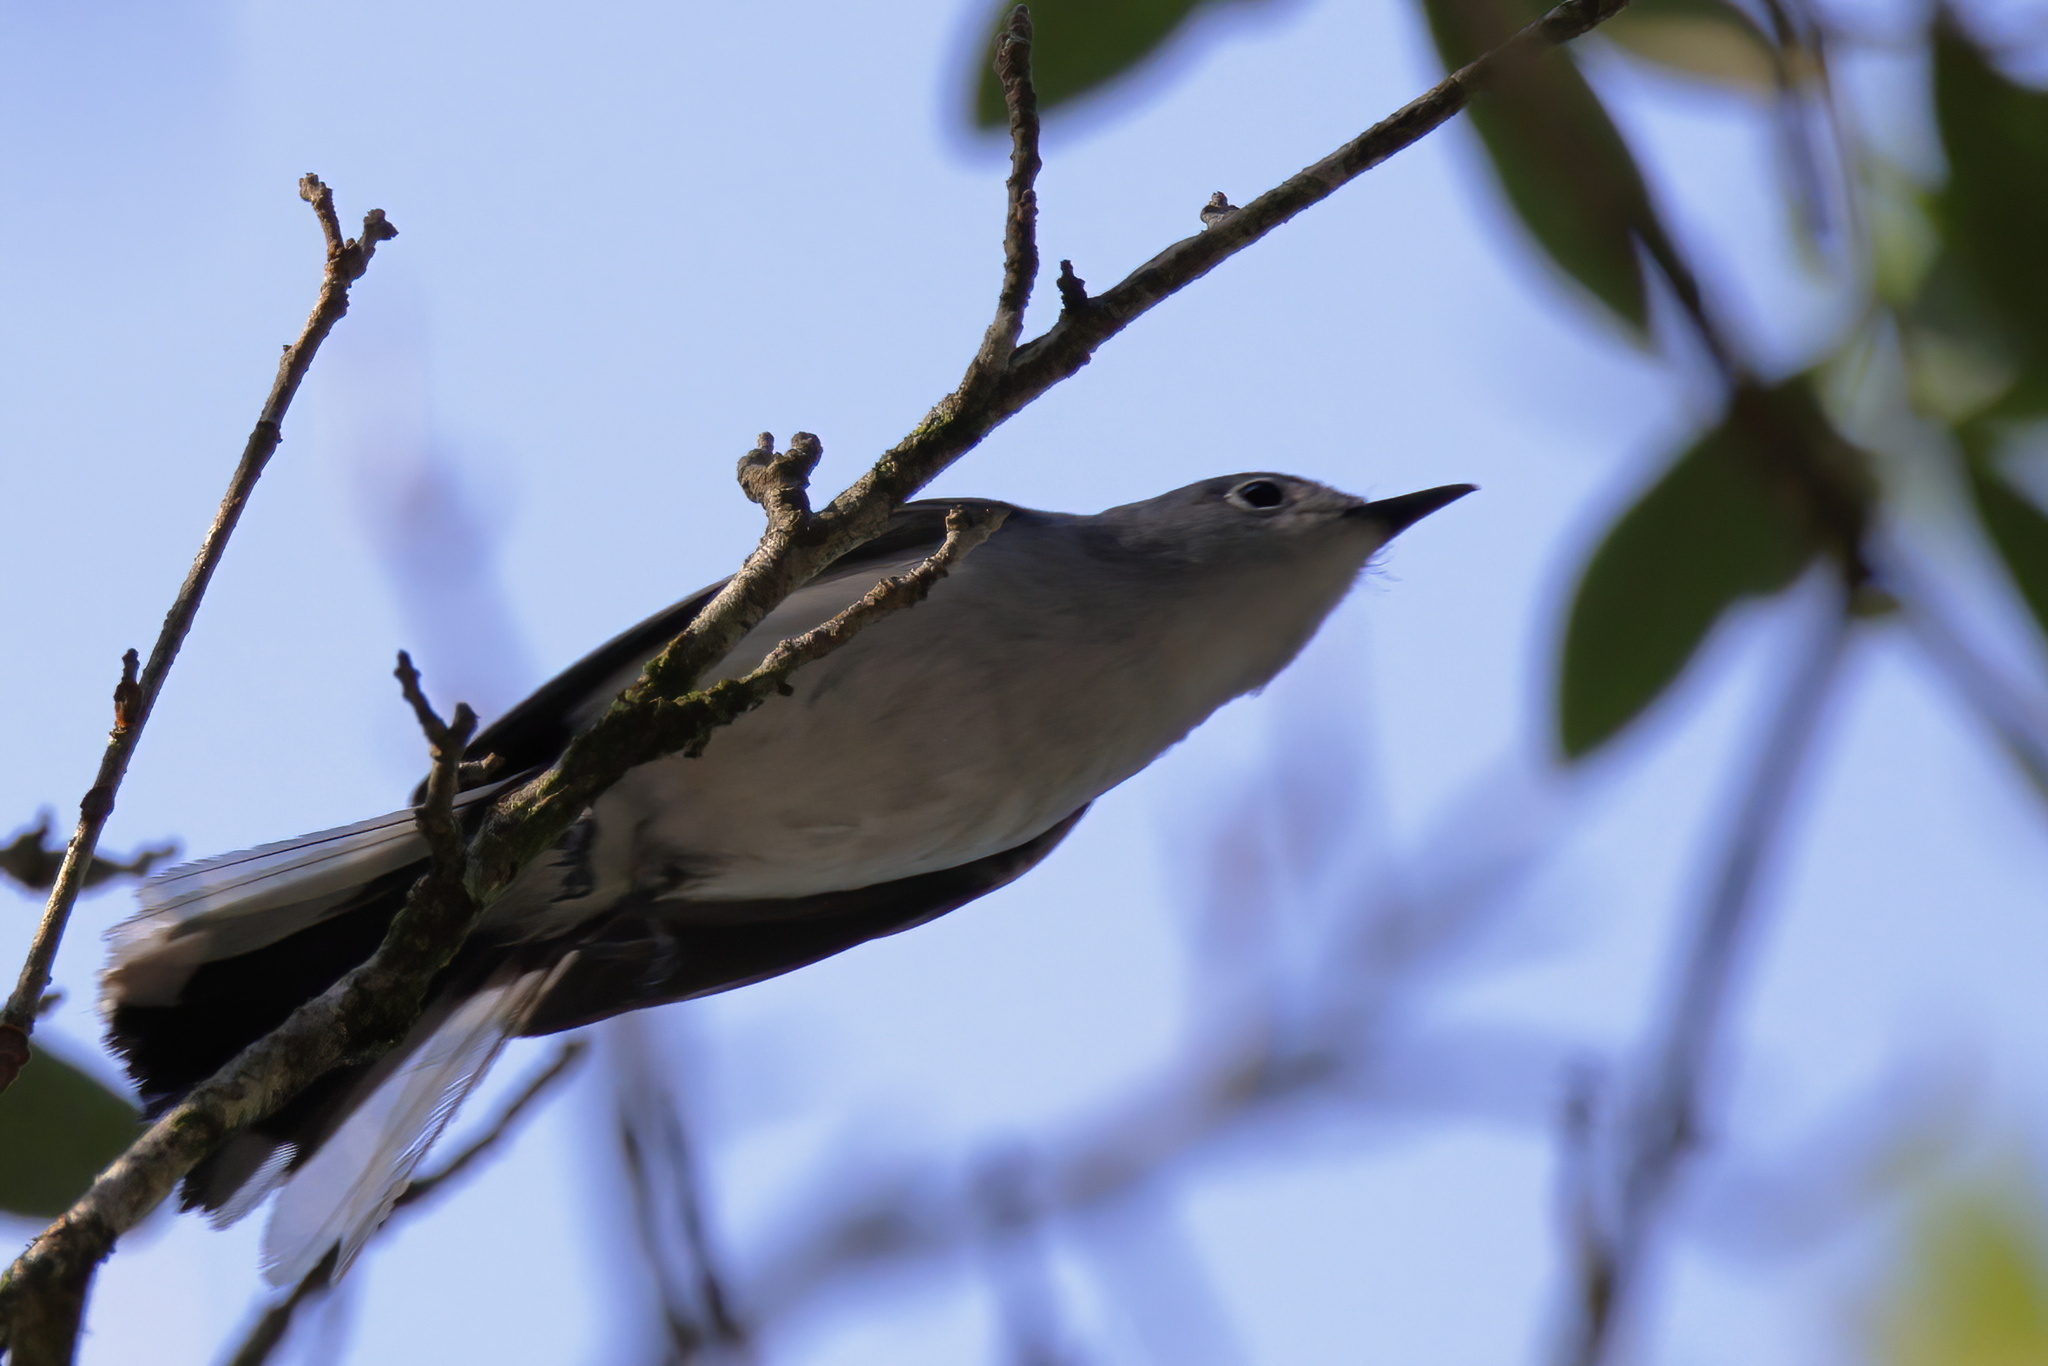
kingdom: Animalia
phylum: Chordata
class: Aves
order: Passeriformes
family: Polioptilidae
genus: Polioptila
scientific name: Polioptila caerulea
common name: Blue-gray gnatcatcher
